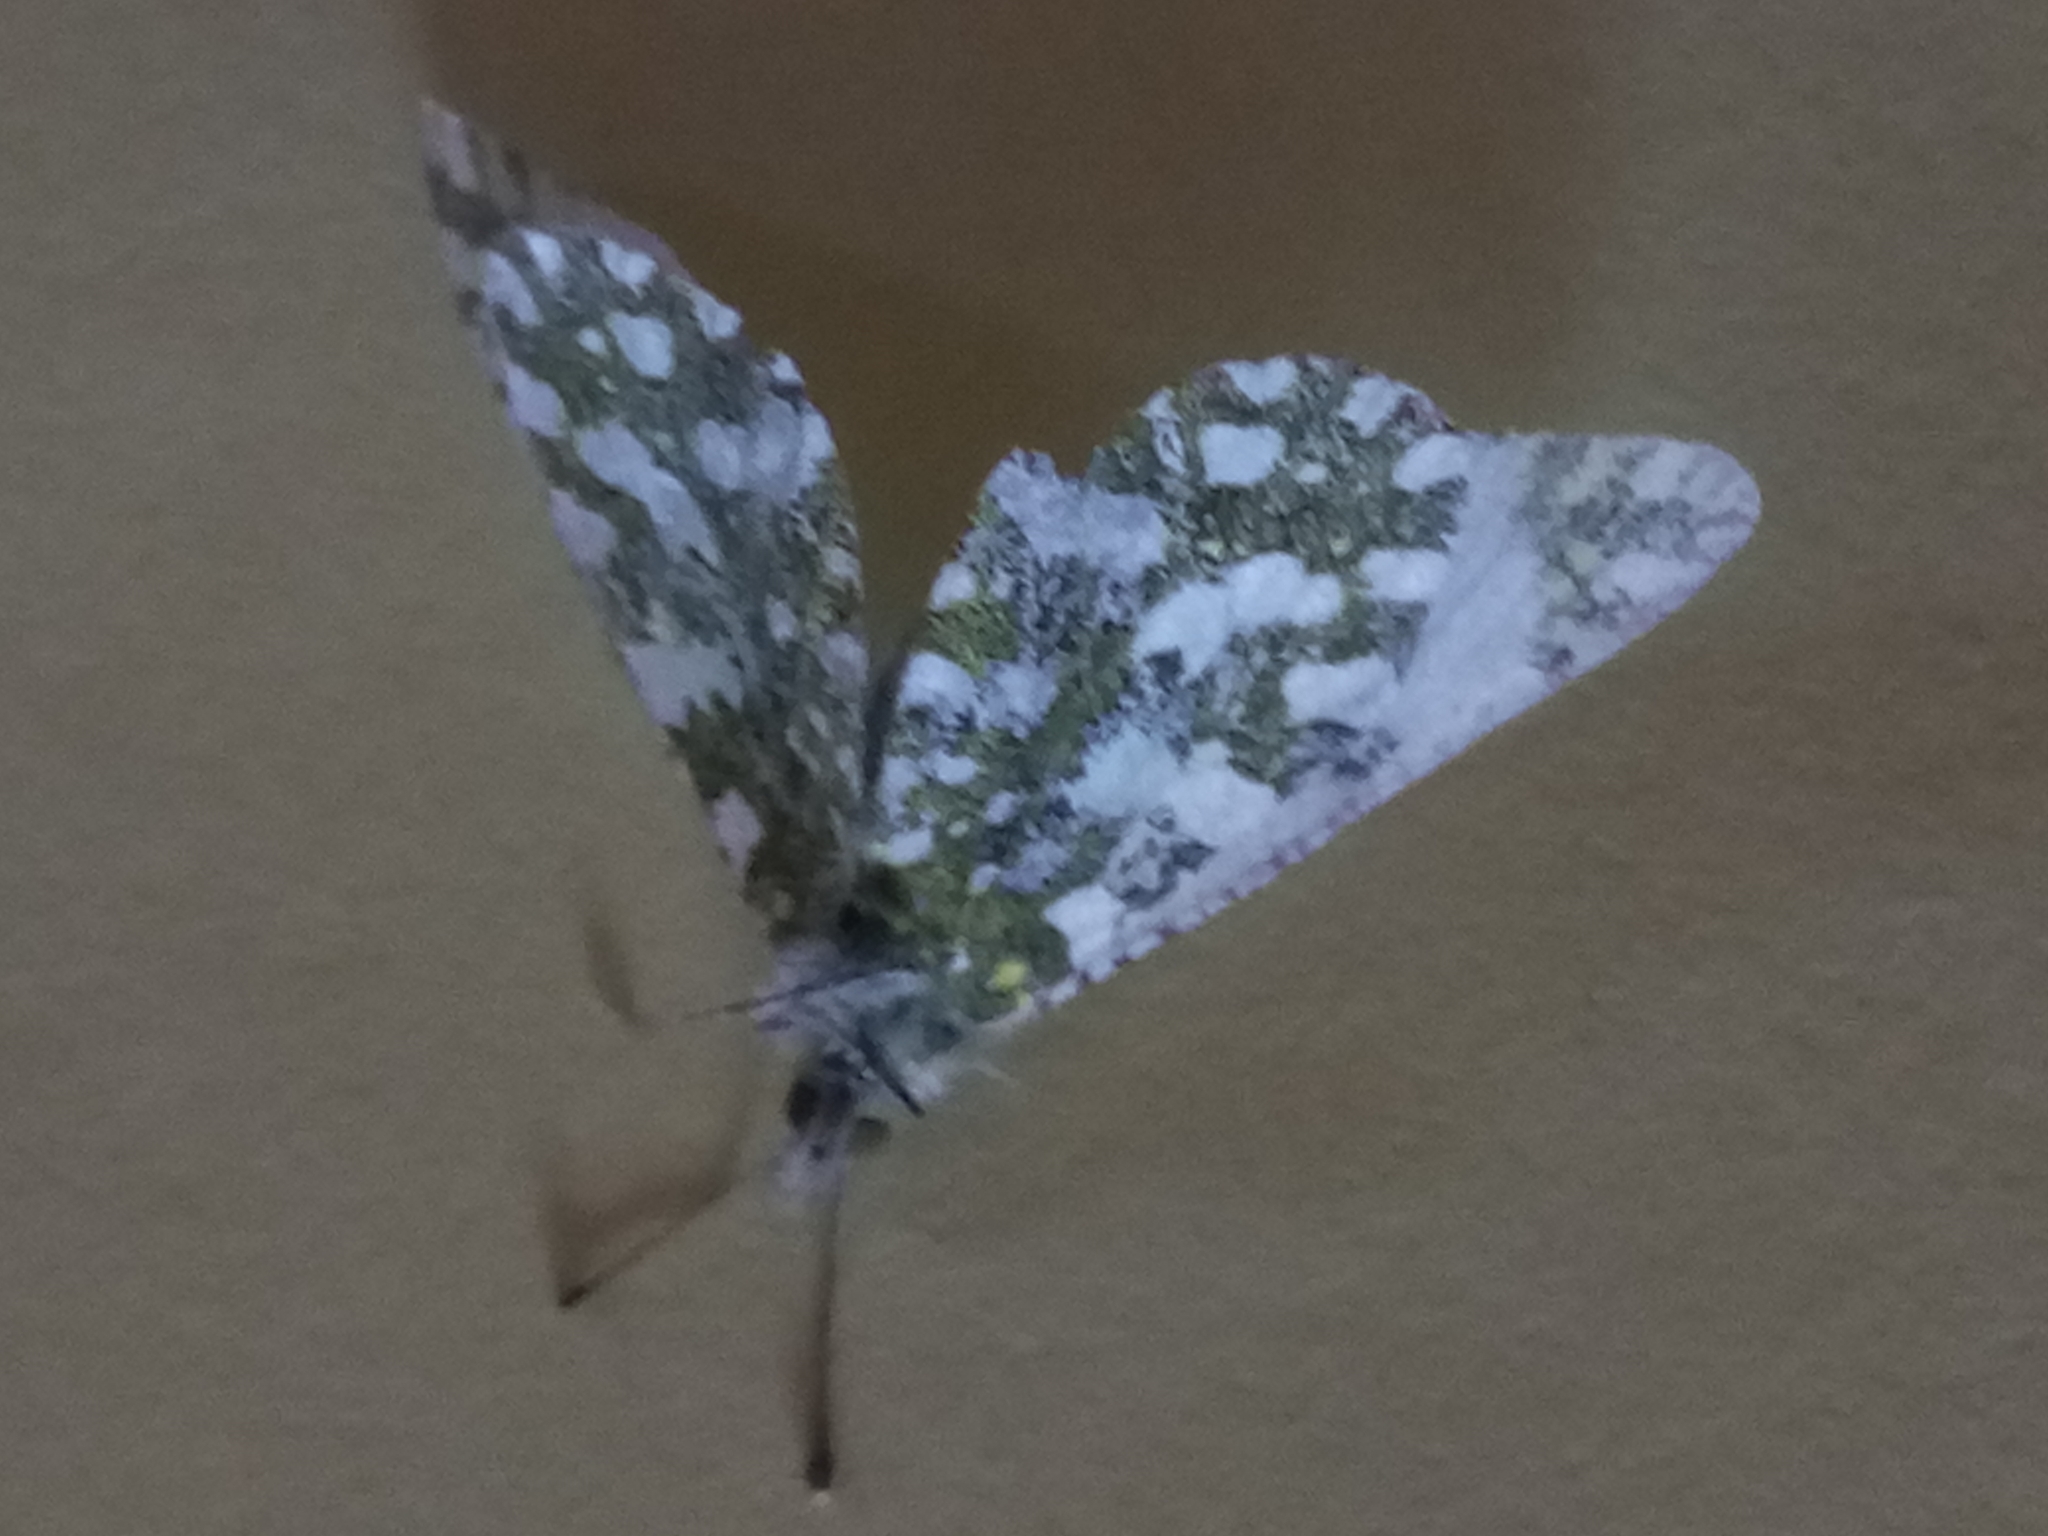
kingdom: Animalia
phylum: Arthropoda
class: Insecta
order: Lepidoptera
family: Pieridae
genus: Euchloe
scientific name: Euchloe crameri
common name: Western dappled white
